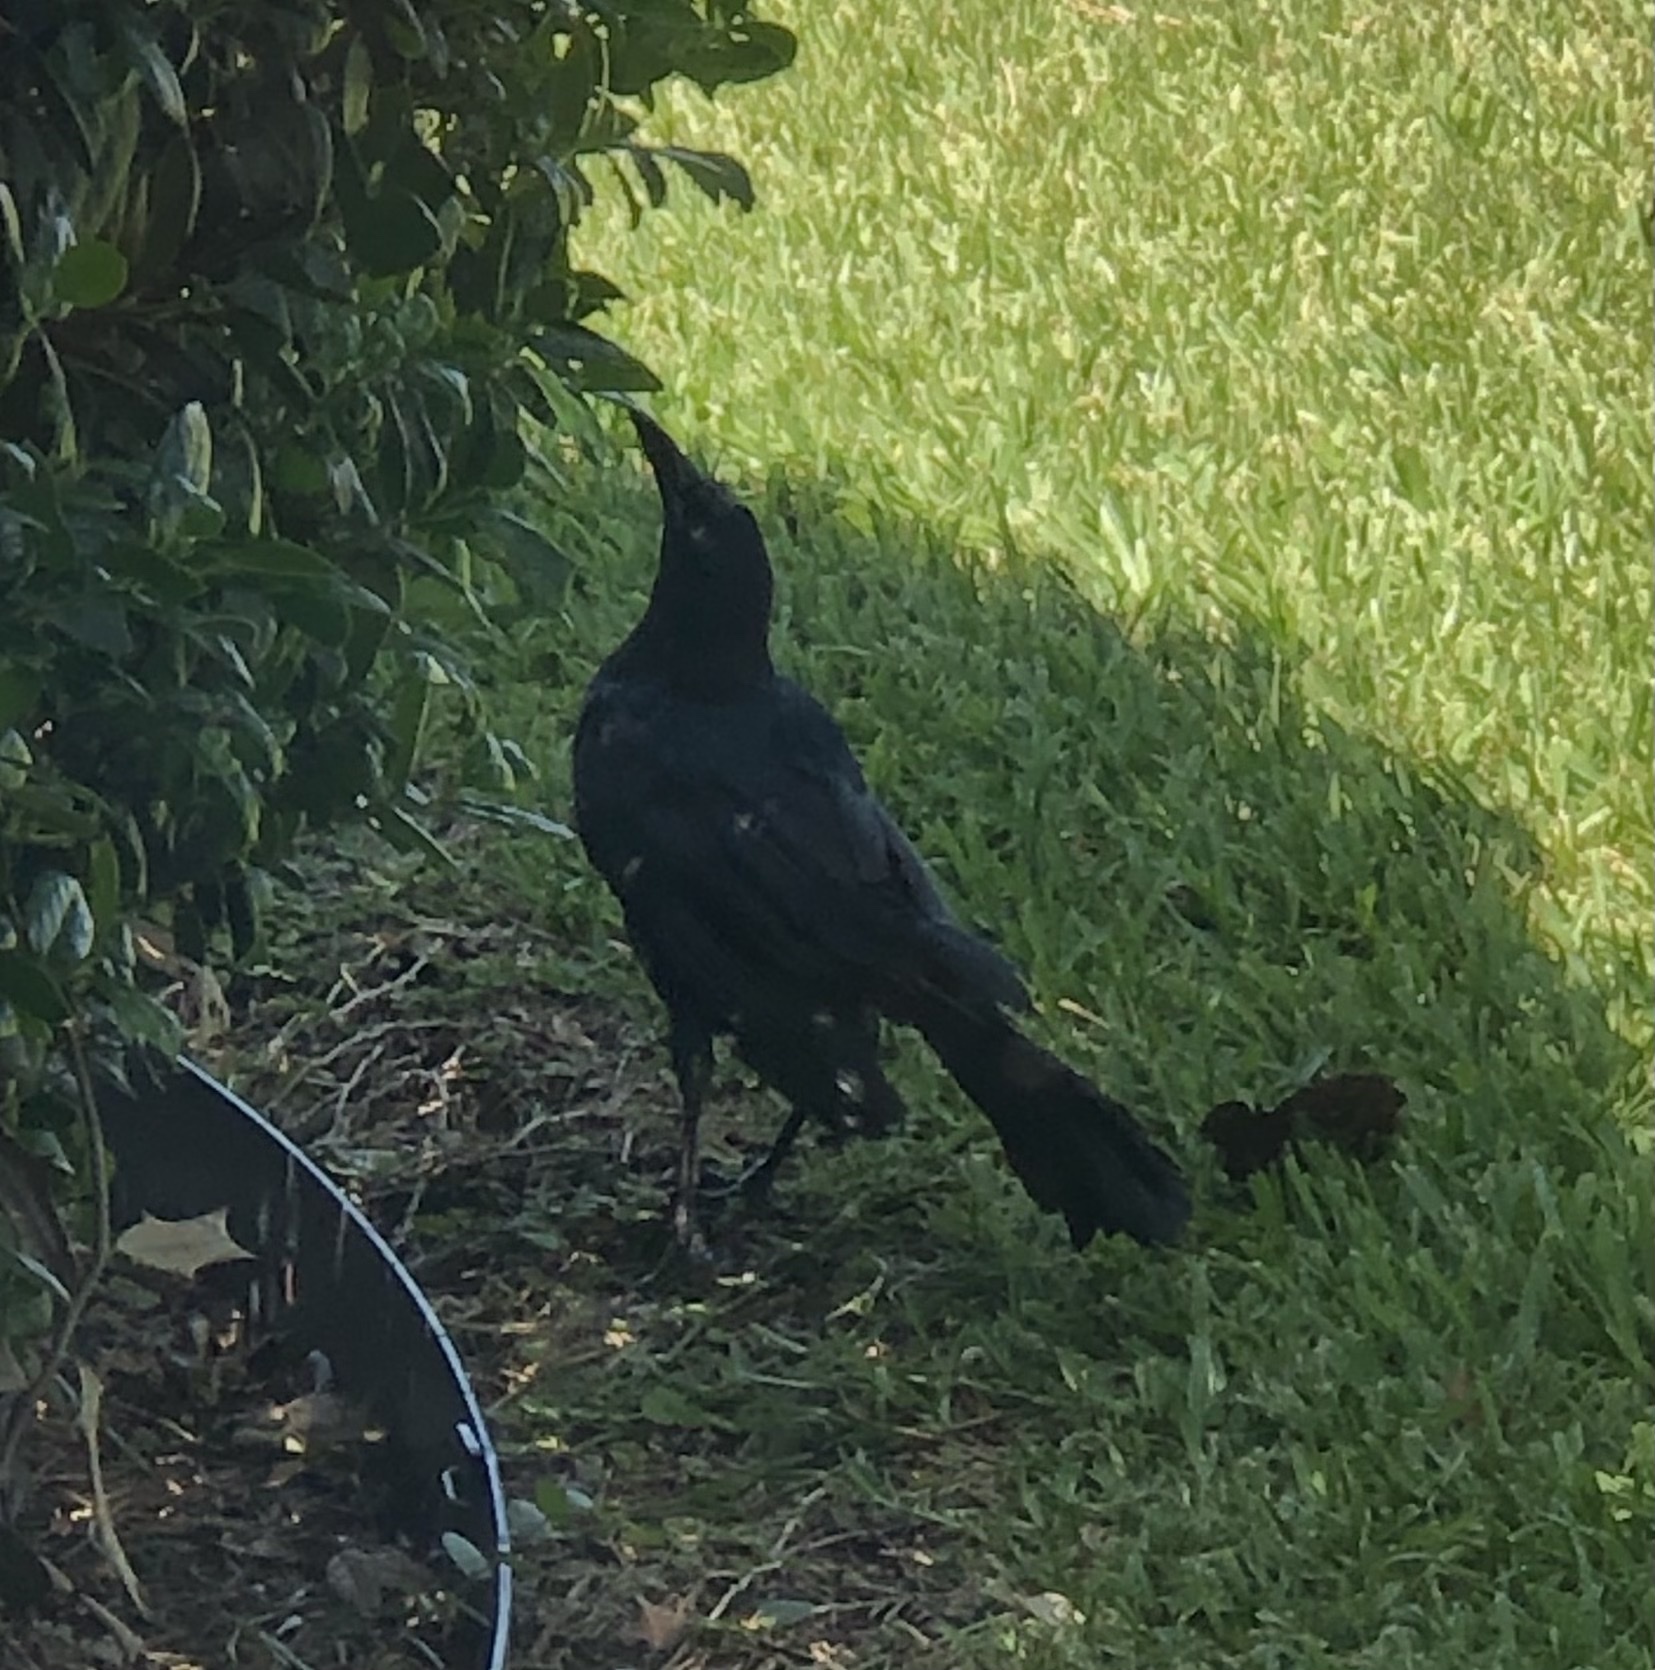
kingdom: Animalia
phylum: Chordata
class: Aves
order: Passeriformes
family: Icteridae
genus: Quiscalus
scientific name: Quiscalus mexicanus
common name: Great-tailed grackle
